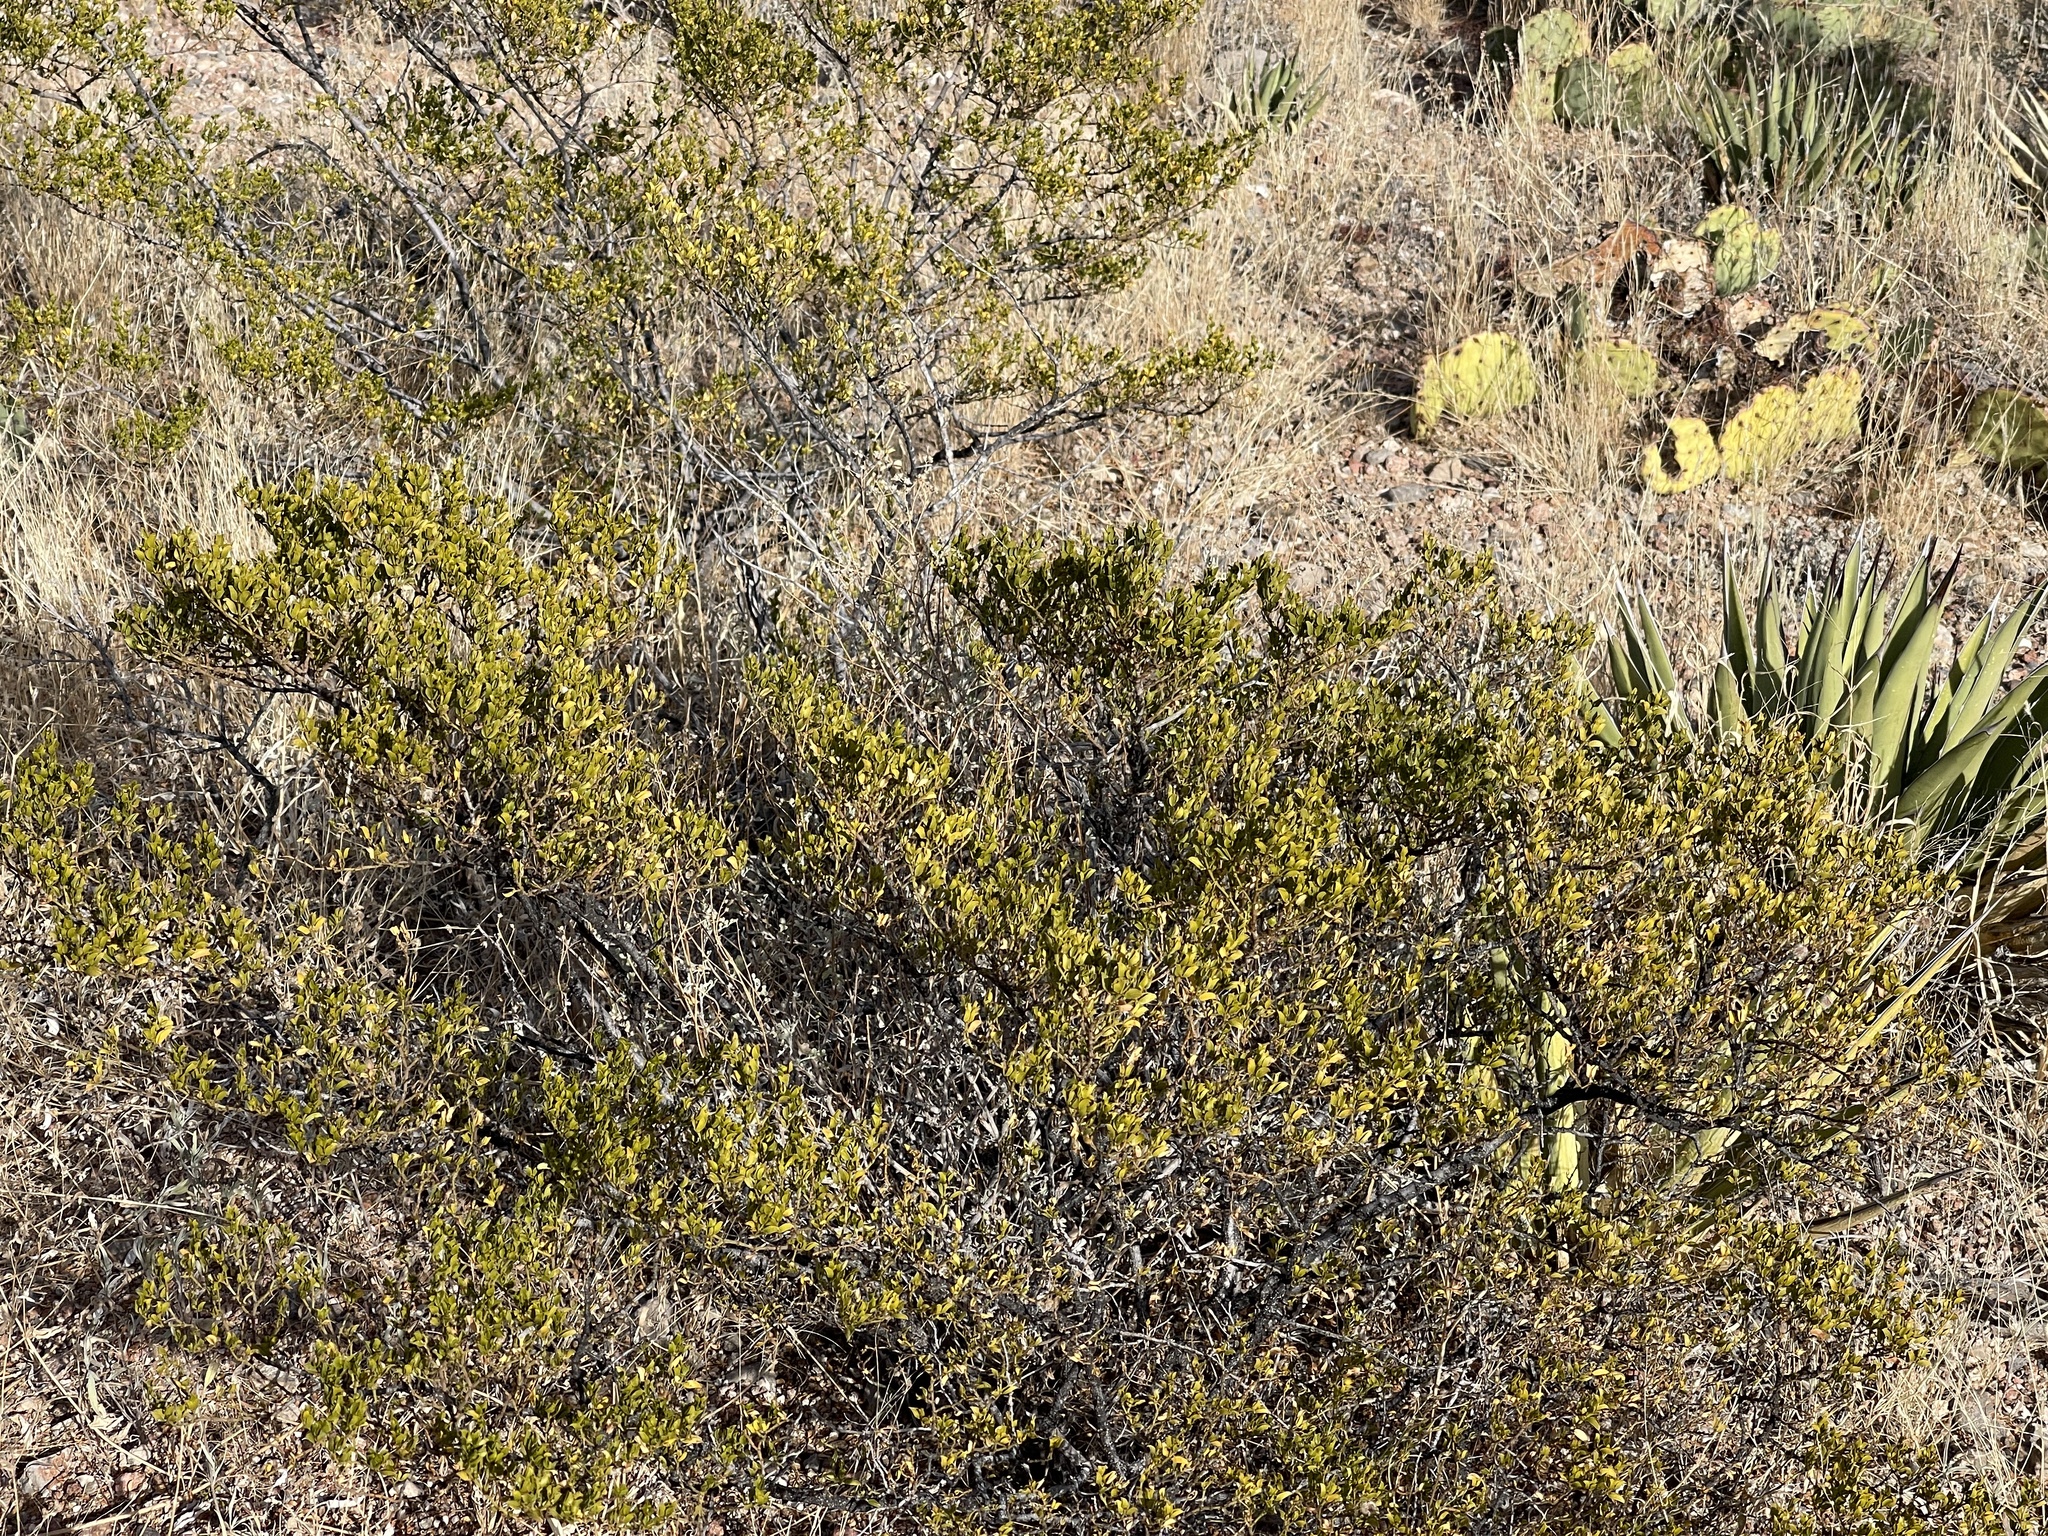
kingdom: Plantae
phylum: Tracheophyta
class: Magnoliopsida
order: Zygophyllales
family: Zygophyllaceae
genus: Larrea
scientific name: Larrea tridentata
